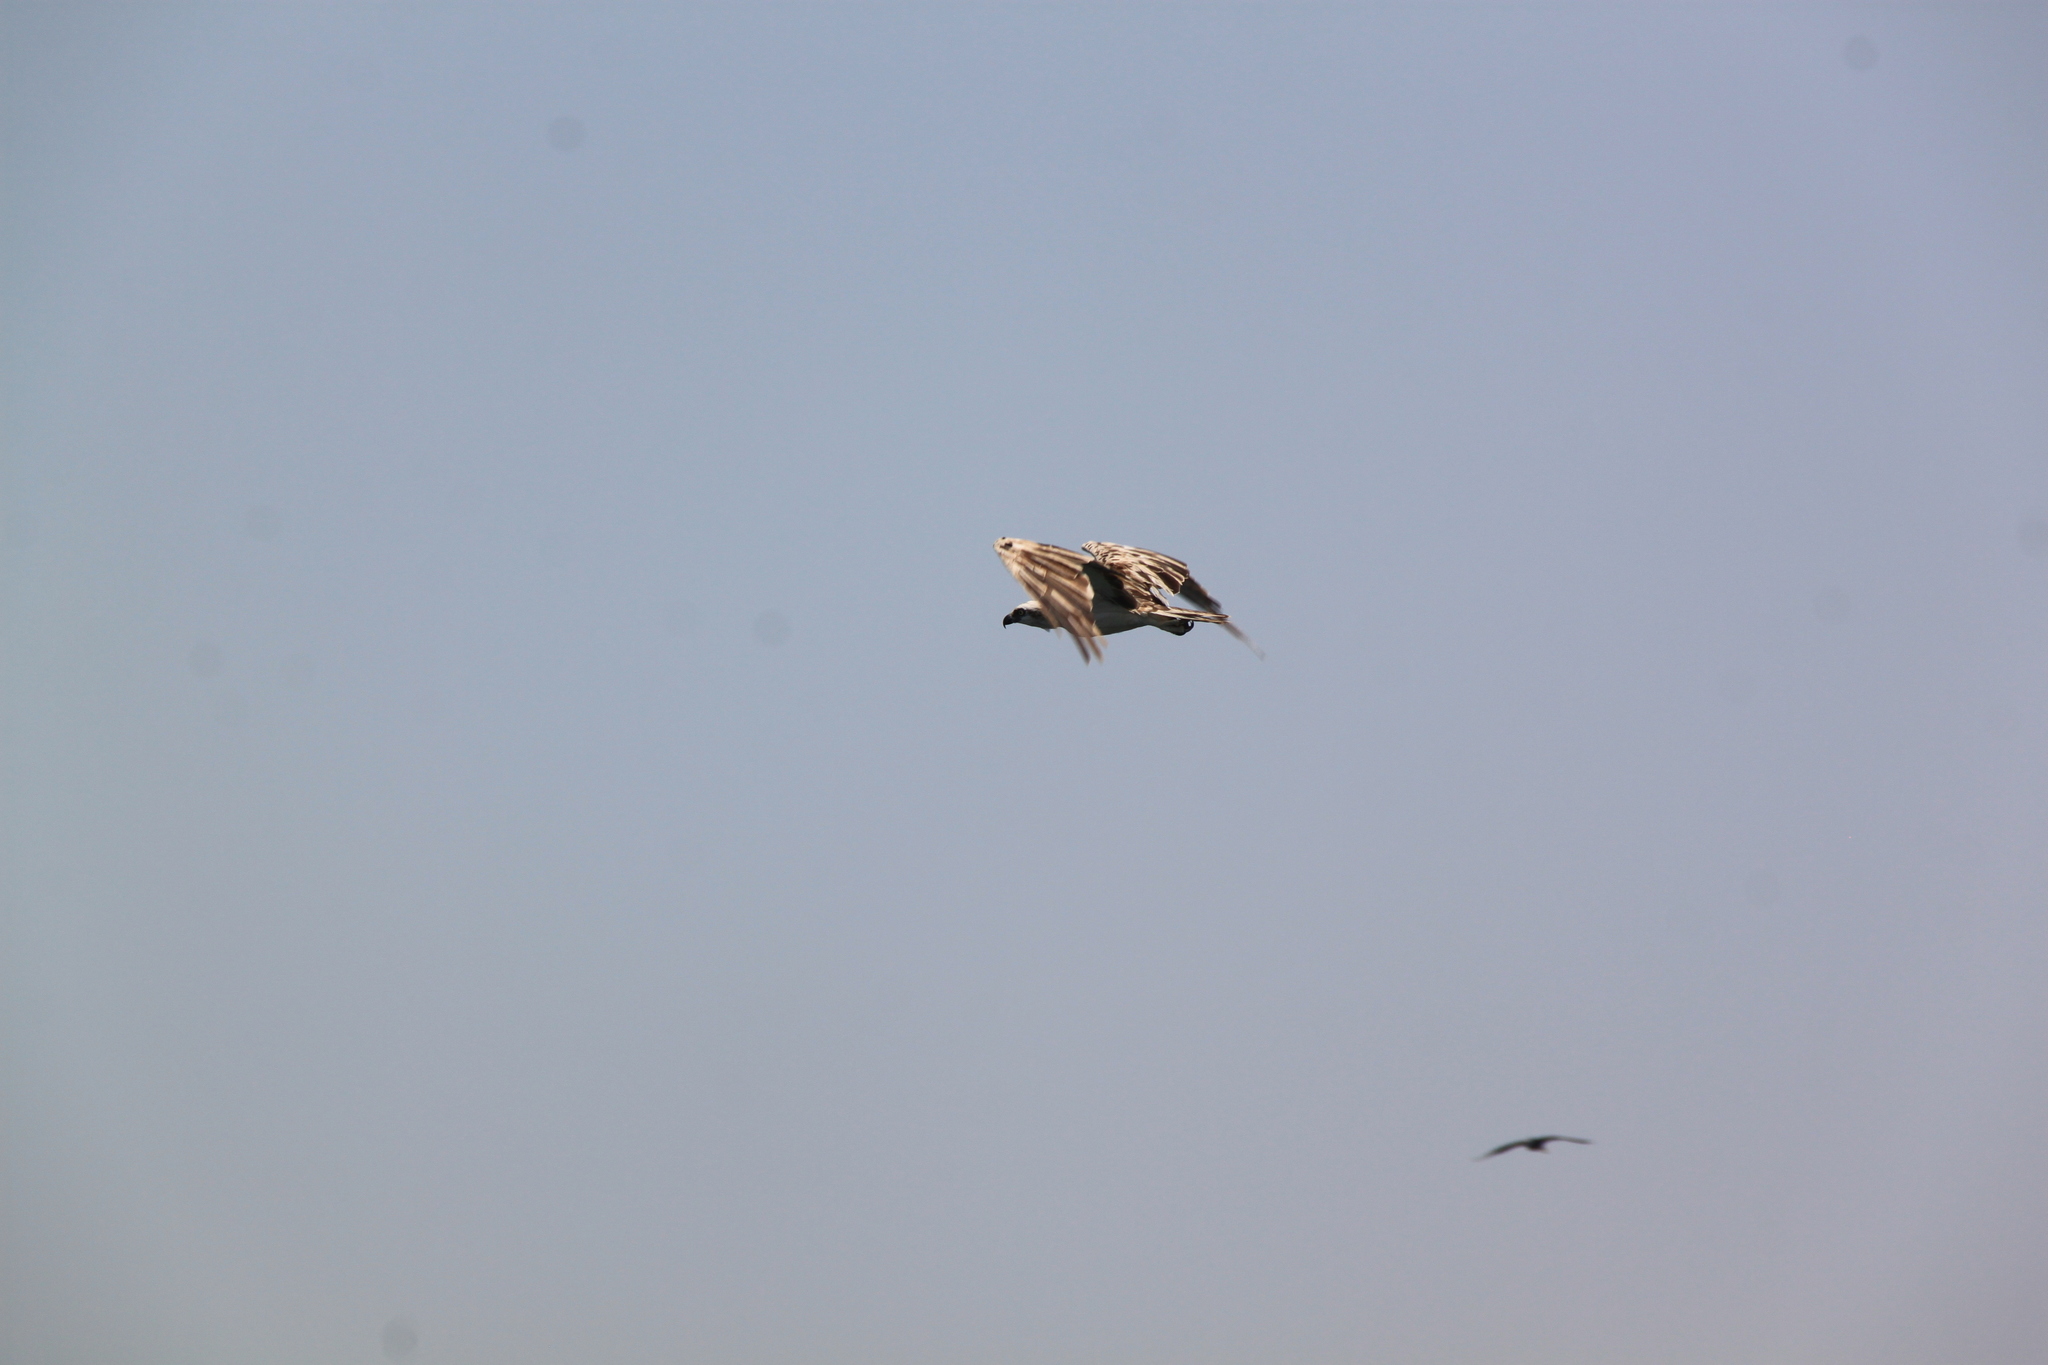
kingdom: Animalia
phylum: Chordata
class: Aves
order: Accipitriformes
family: Pandionidae
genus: Pandion
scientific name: Pandion haliaetus
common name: Osprey
